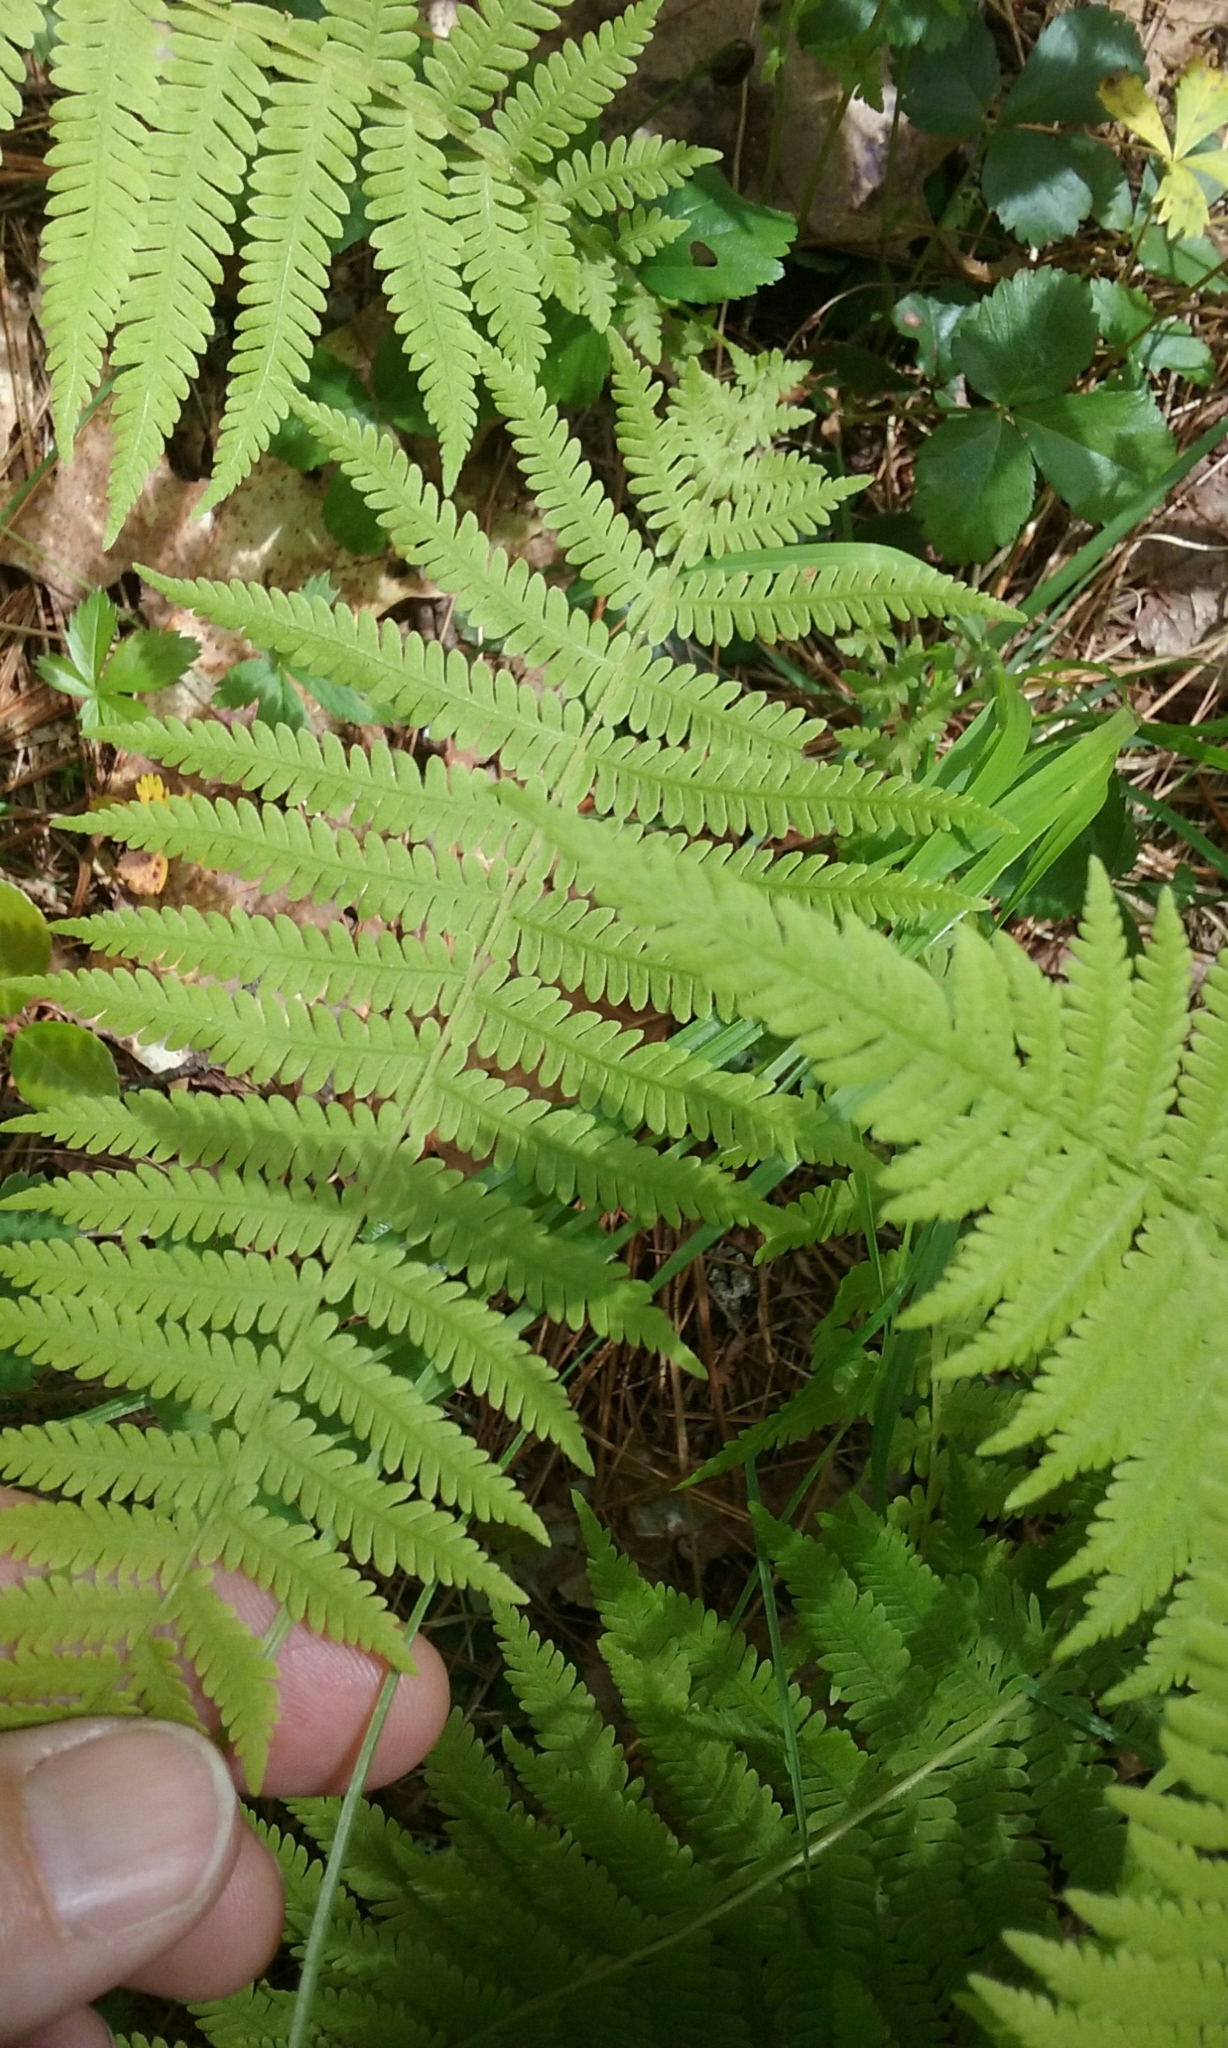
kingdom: Plantae
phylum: Tracheophyta
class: Polypodiopsida
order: Polypodiales
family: Thelypteridaceae
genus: Amauropelta
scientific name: Amauropelta noveboracensis
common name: New york fern
